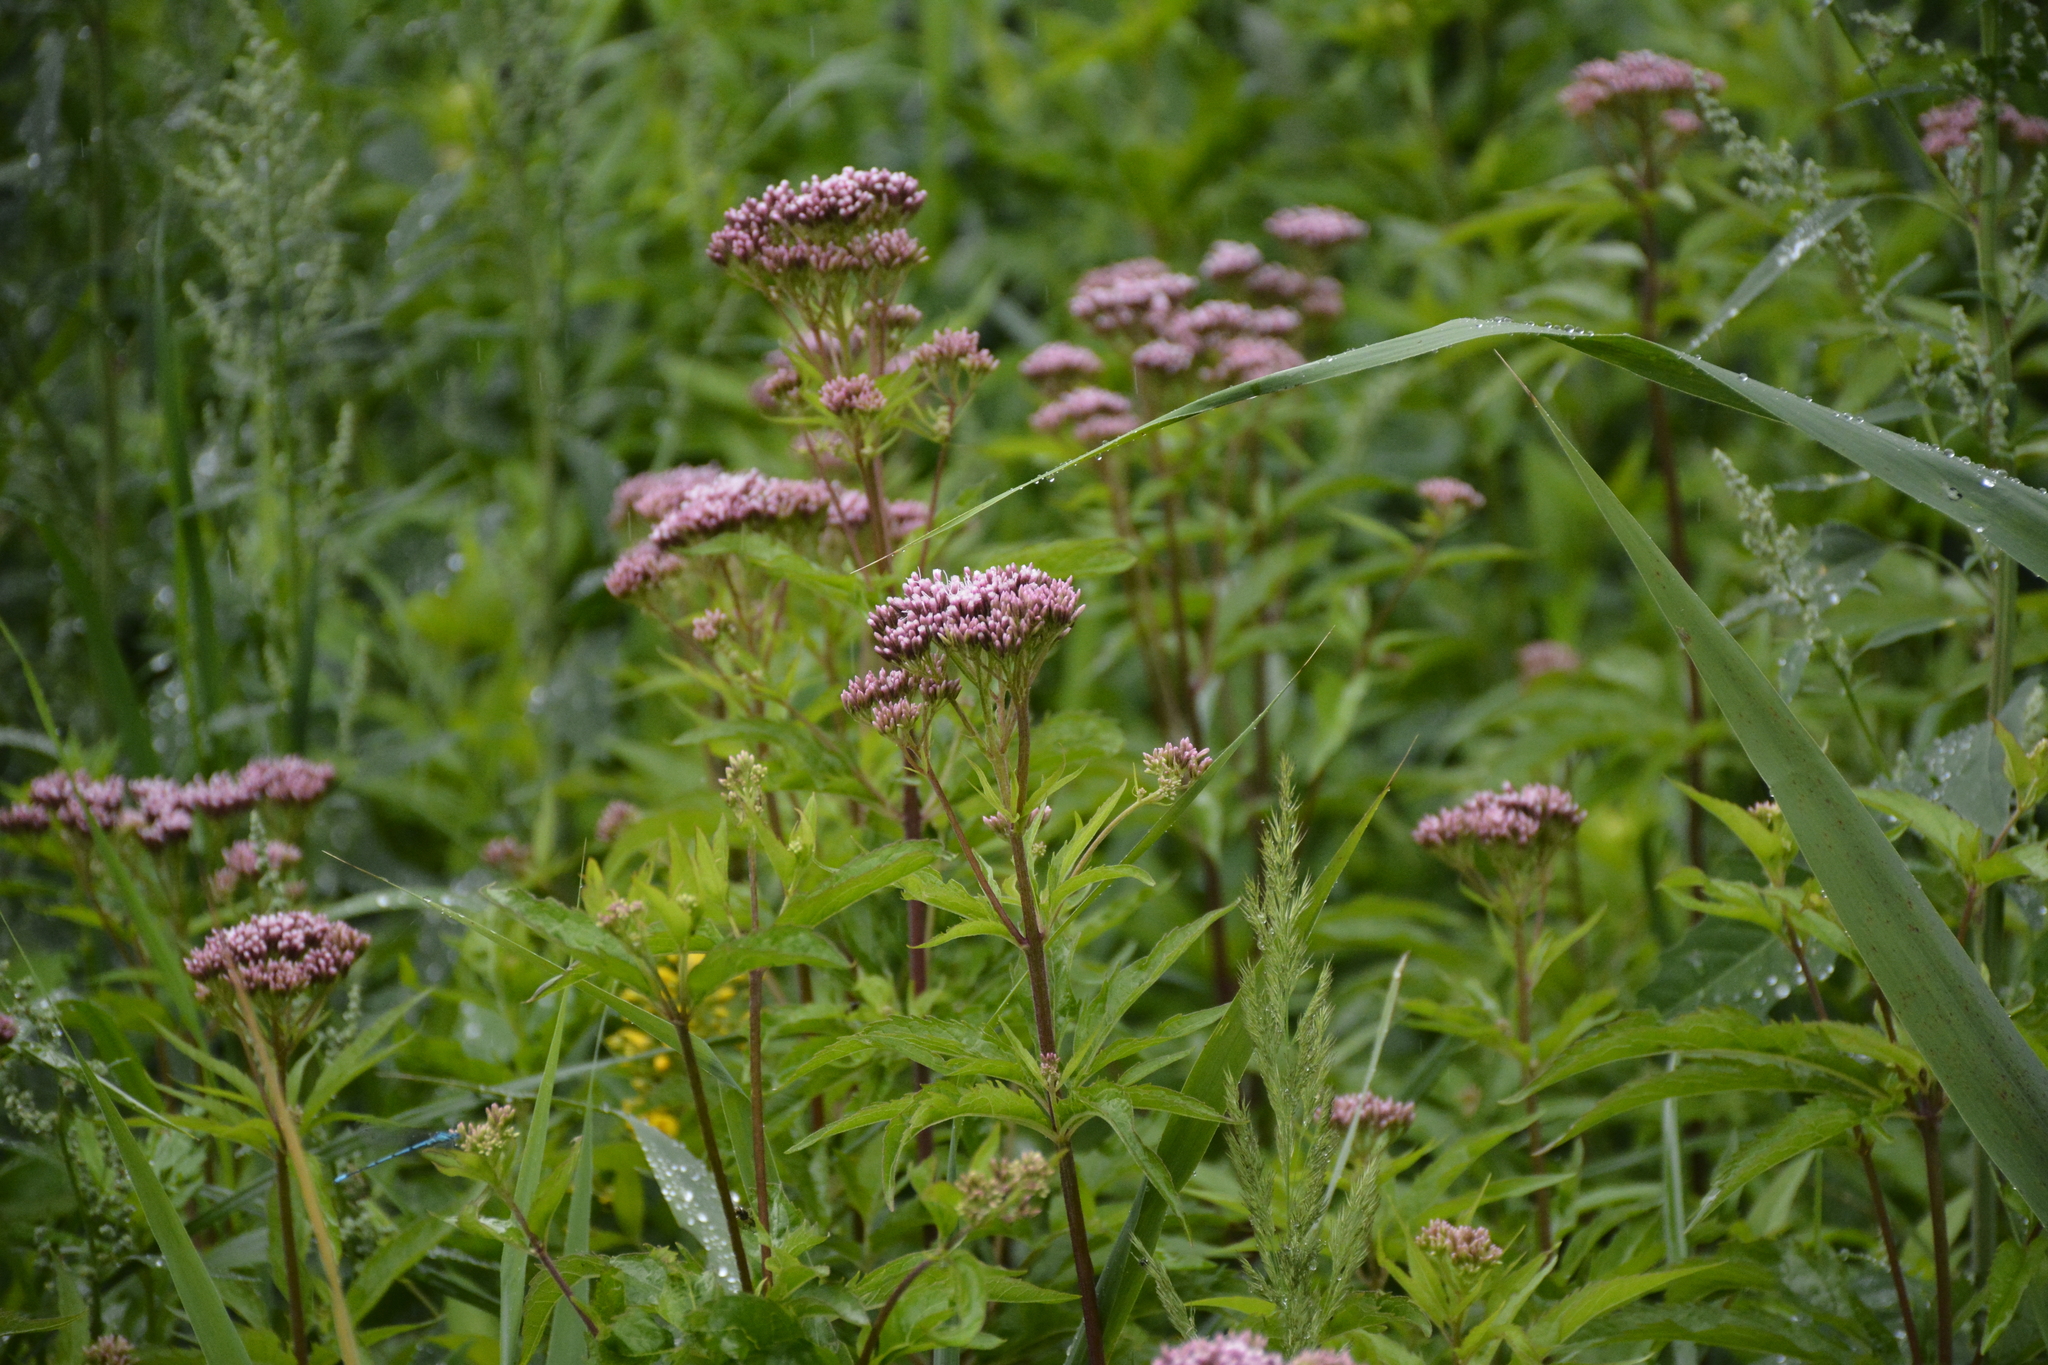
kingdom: Plantae
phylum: Tracheophyta
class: Magnoliopsida
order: Asterales
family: Asteraceae
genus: Eupatorium
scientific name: Eupatorium cannabinum
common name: Hemp-agrimony
